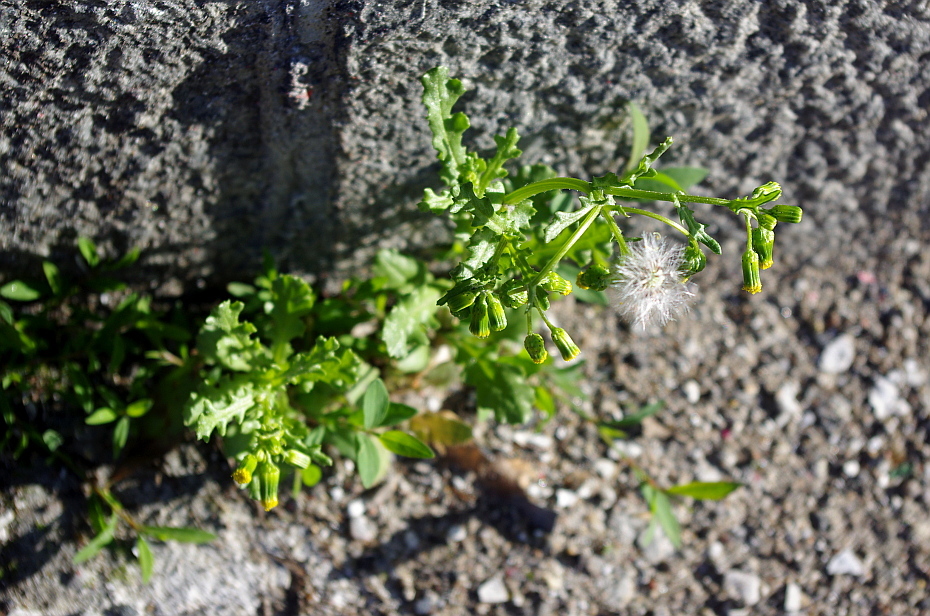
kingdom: Plantae
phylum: Tracheophyta
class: Magnoliopsida
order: Asterales
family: Asteraceae
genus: Senecio
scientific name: Senecio vulgaris
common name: Old-man-in-the-spring
